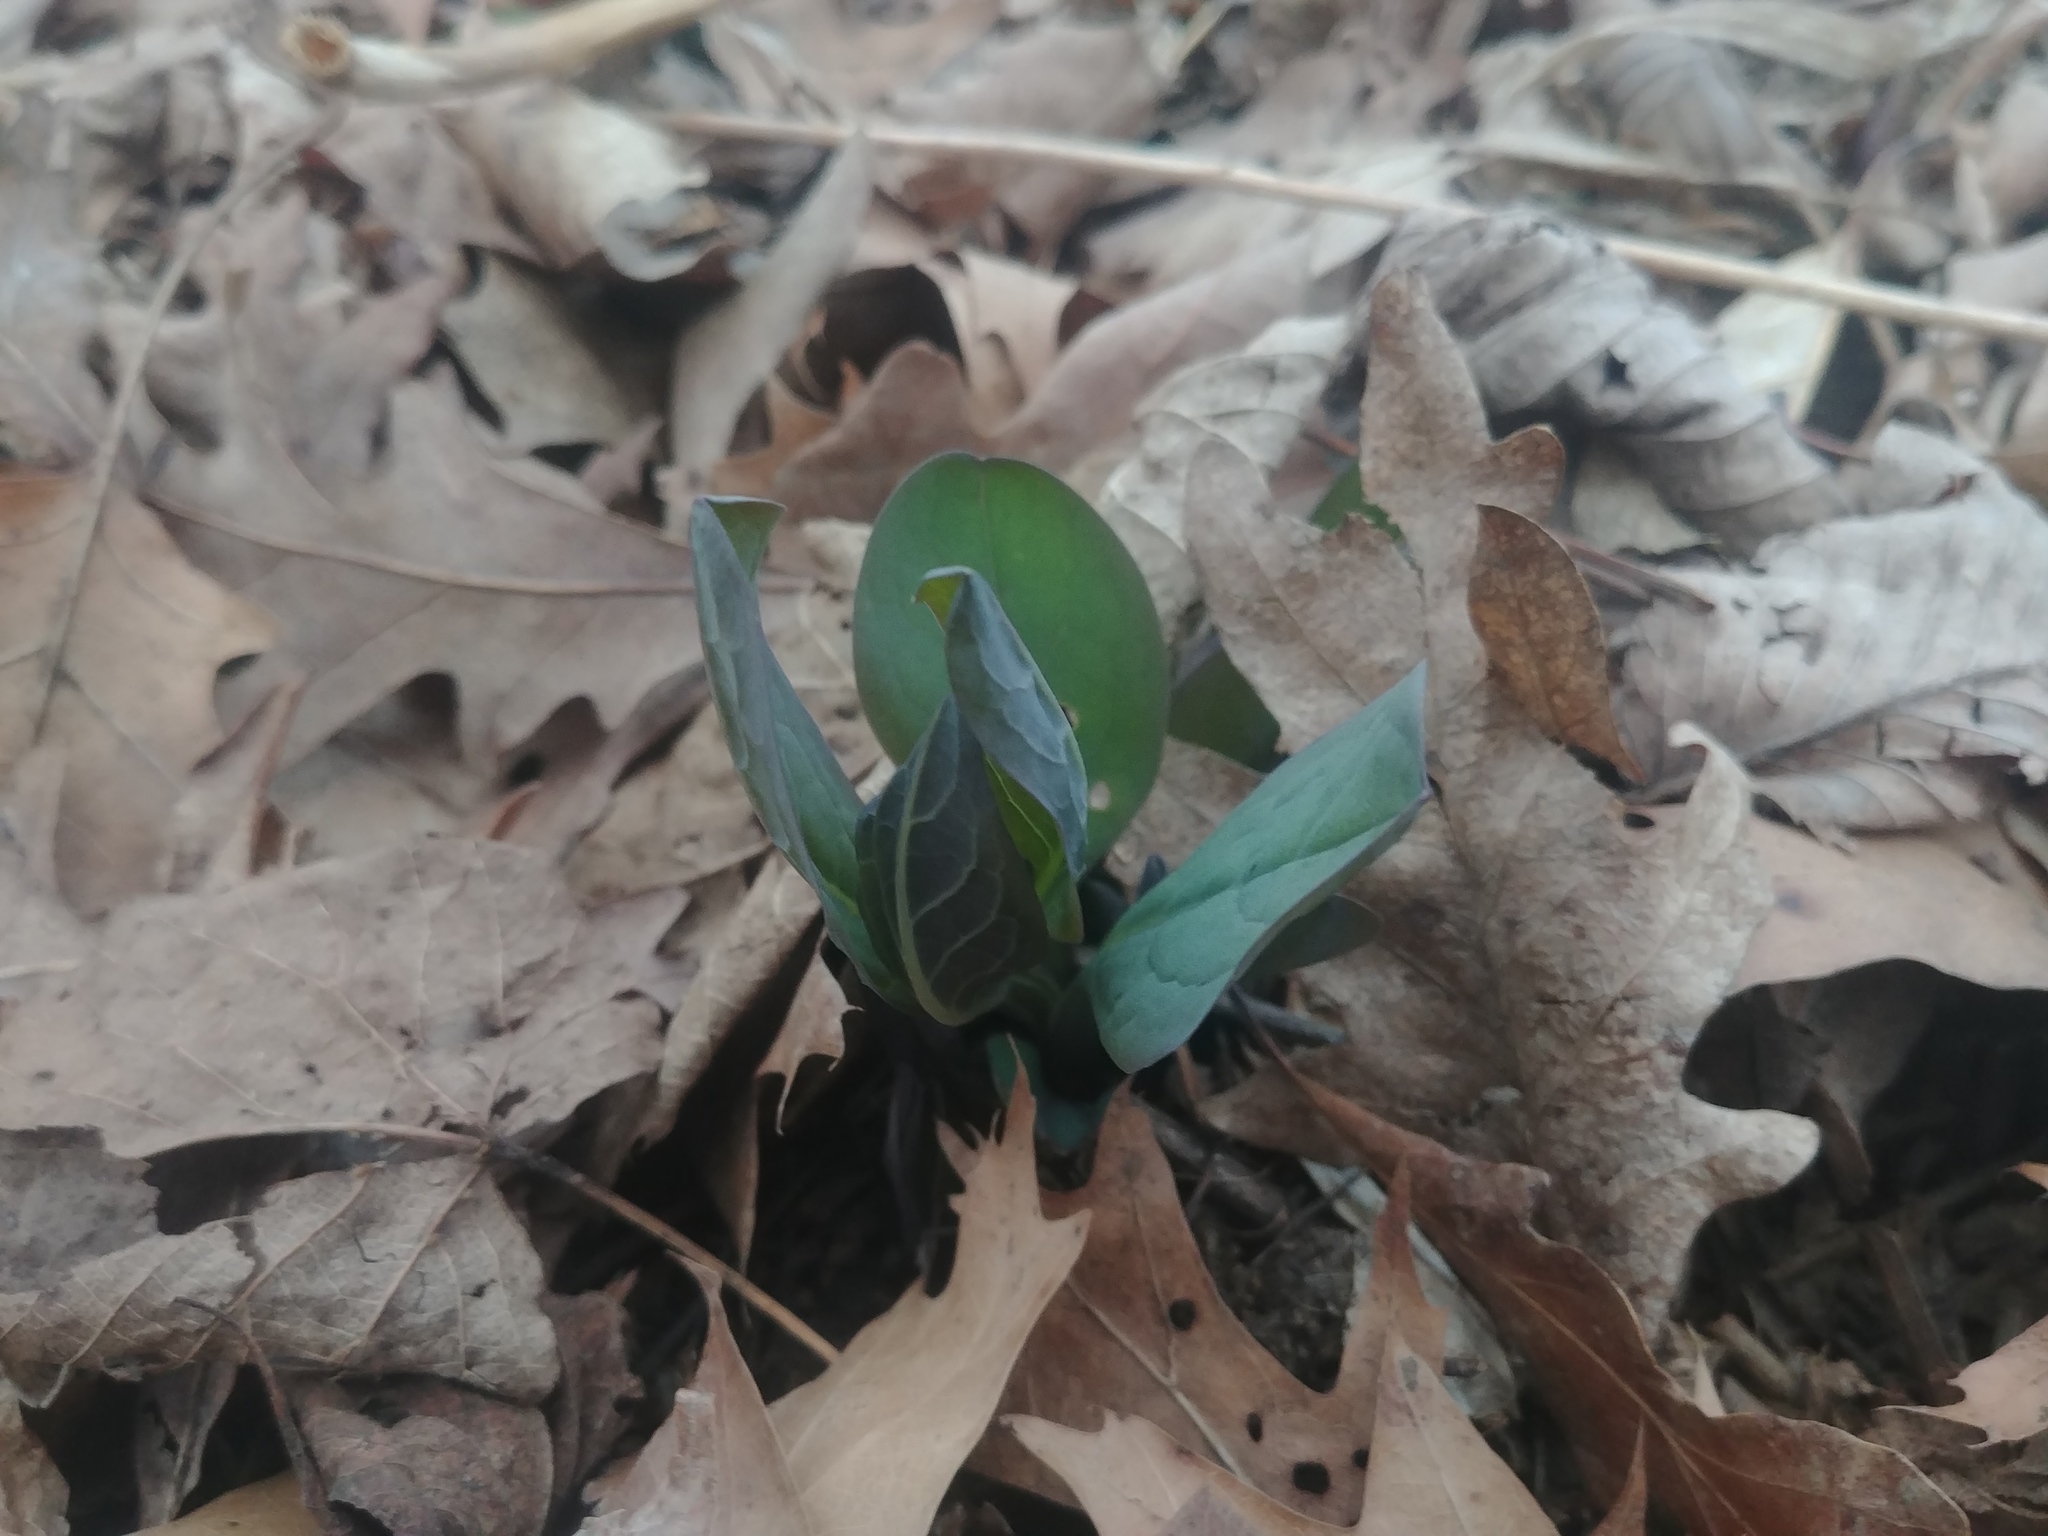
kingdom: Plantae
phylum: Tracheophyta
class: Magnoliopsida
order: Boraginales
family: Boraginaceae
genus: Mertensia
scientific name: Mertensia virginica
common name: Virginia bluebells
